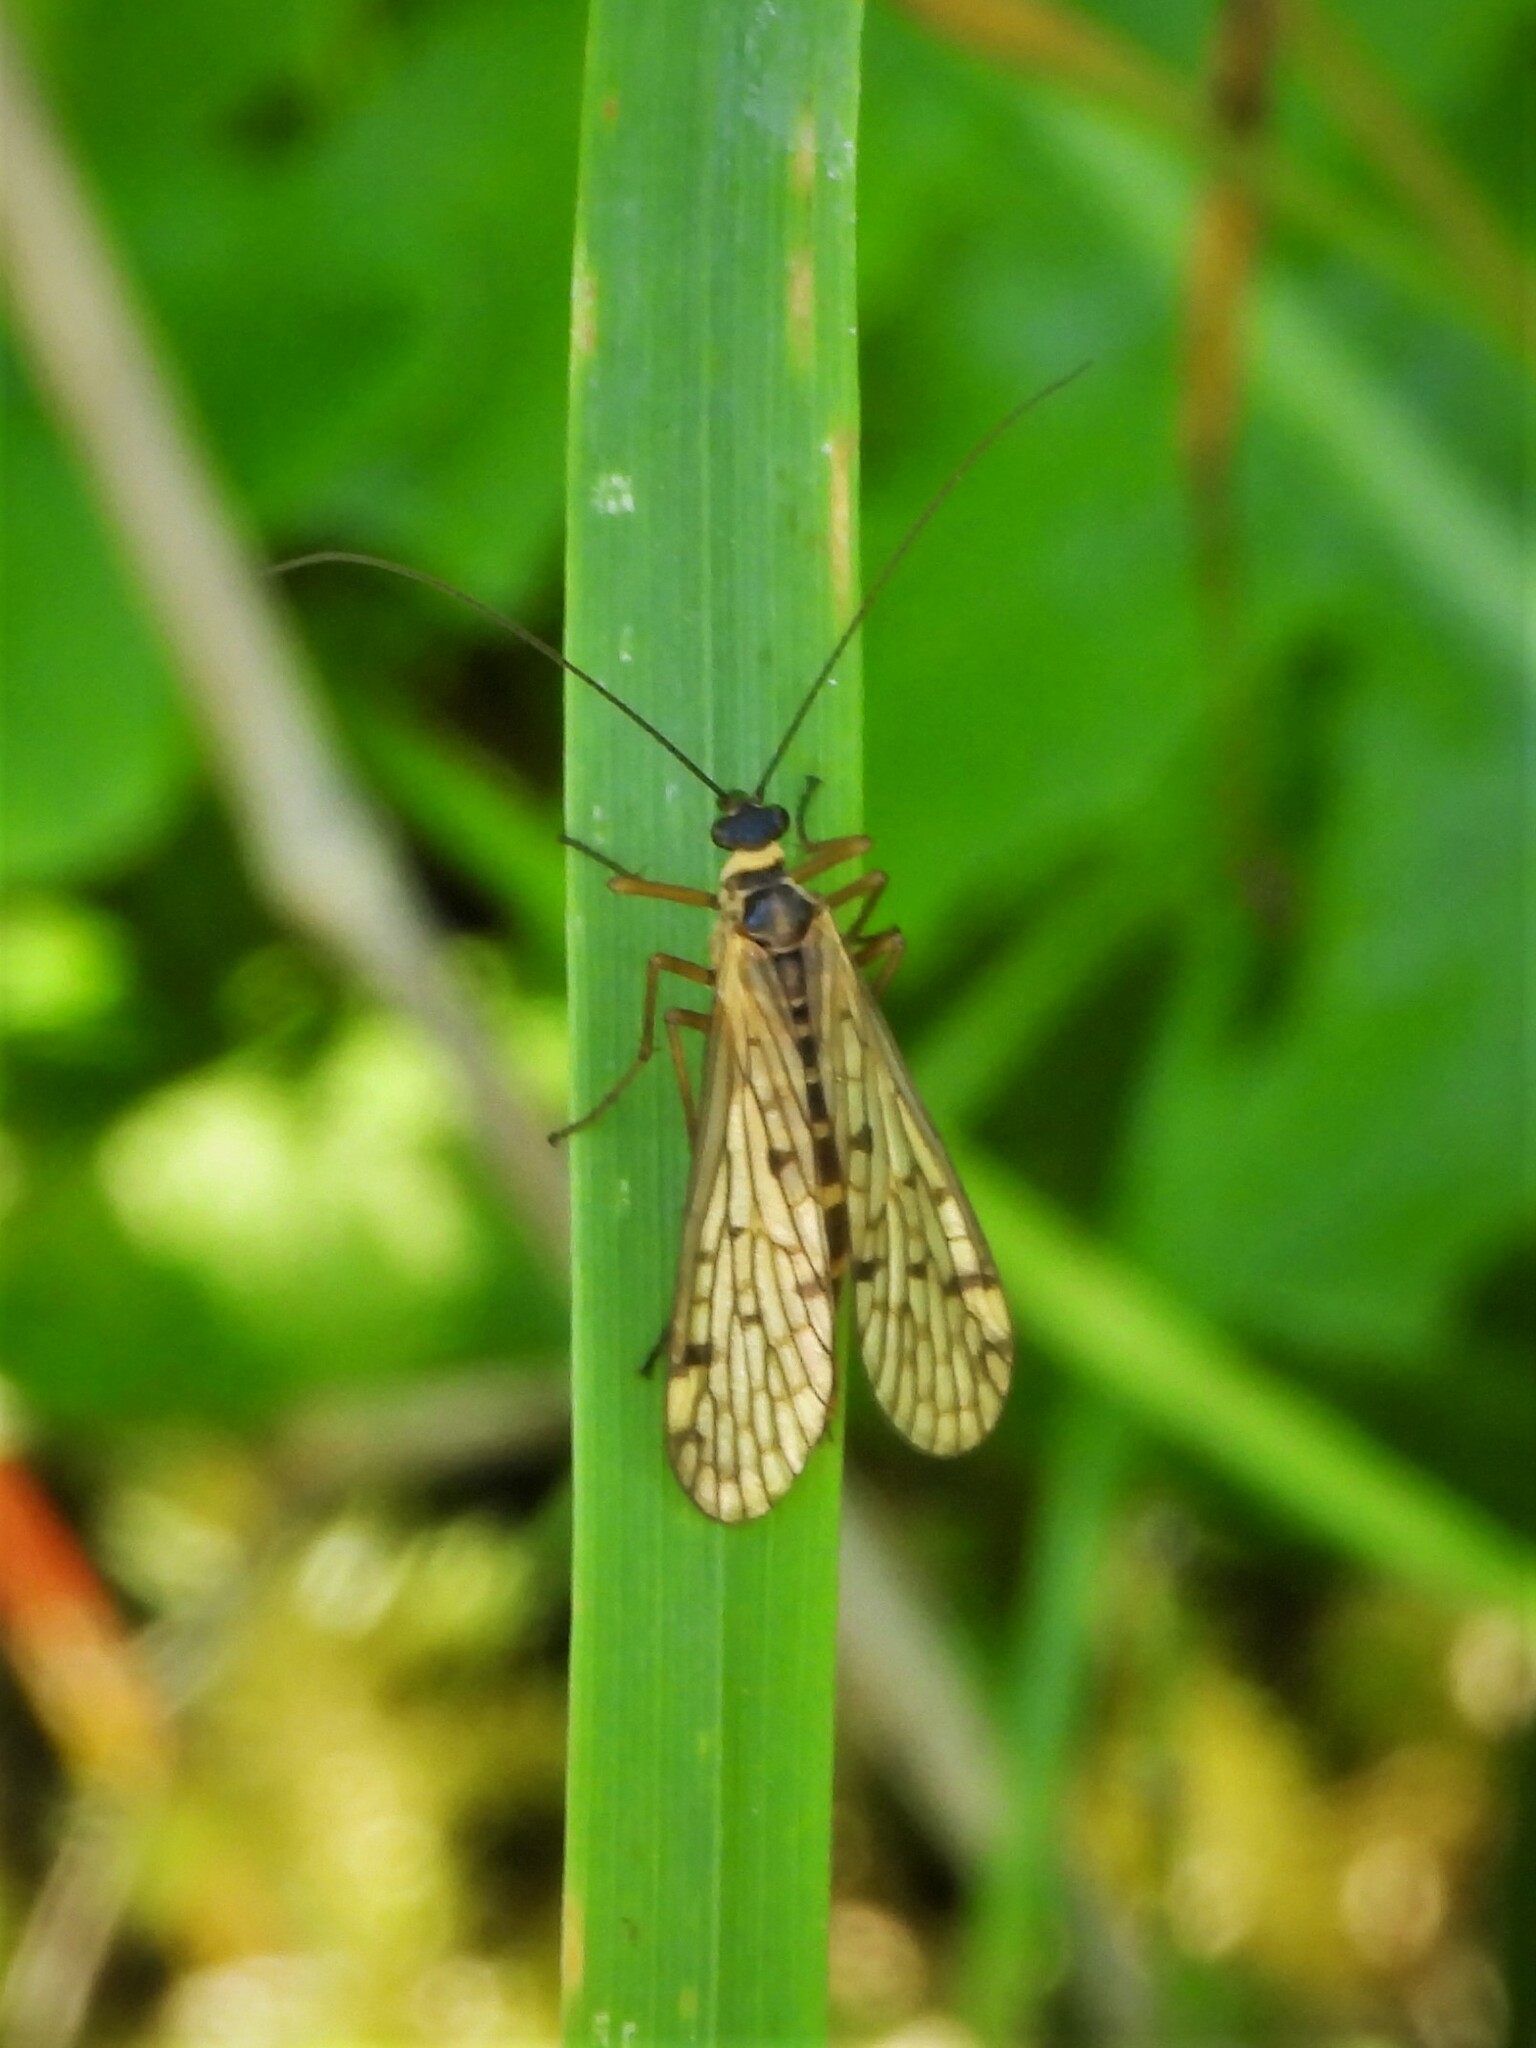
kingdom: Animalia
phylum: Arthropoda
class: Insecta
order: Mecoptera
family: Panorpidae
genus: Panorpa
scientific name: Panorpa alpina
